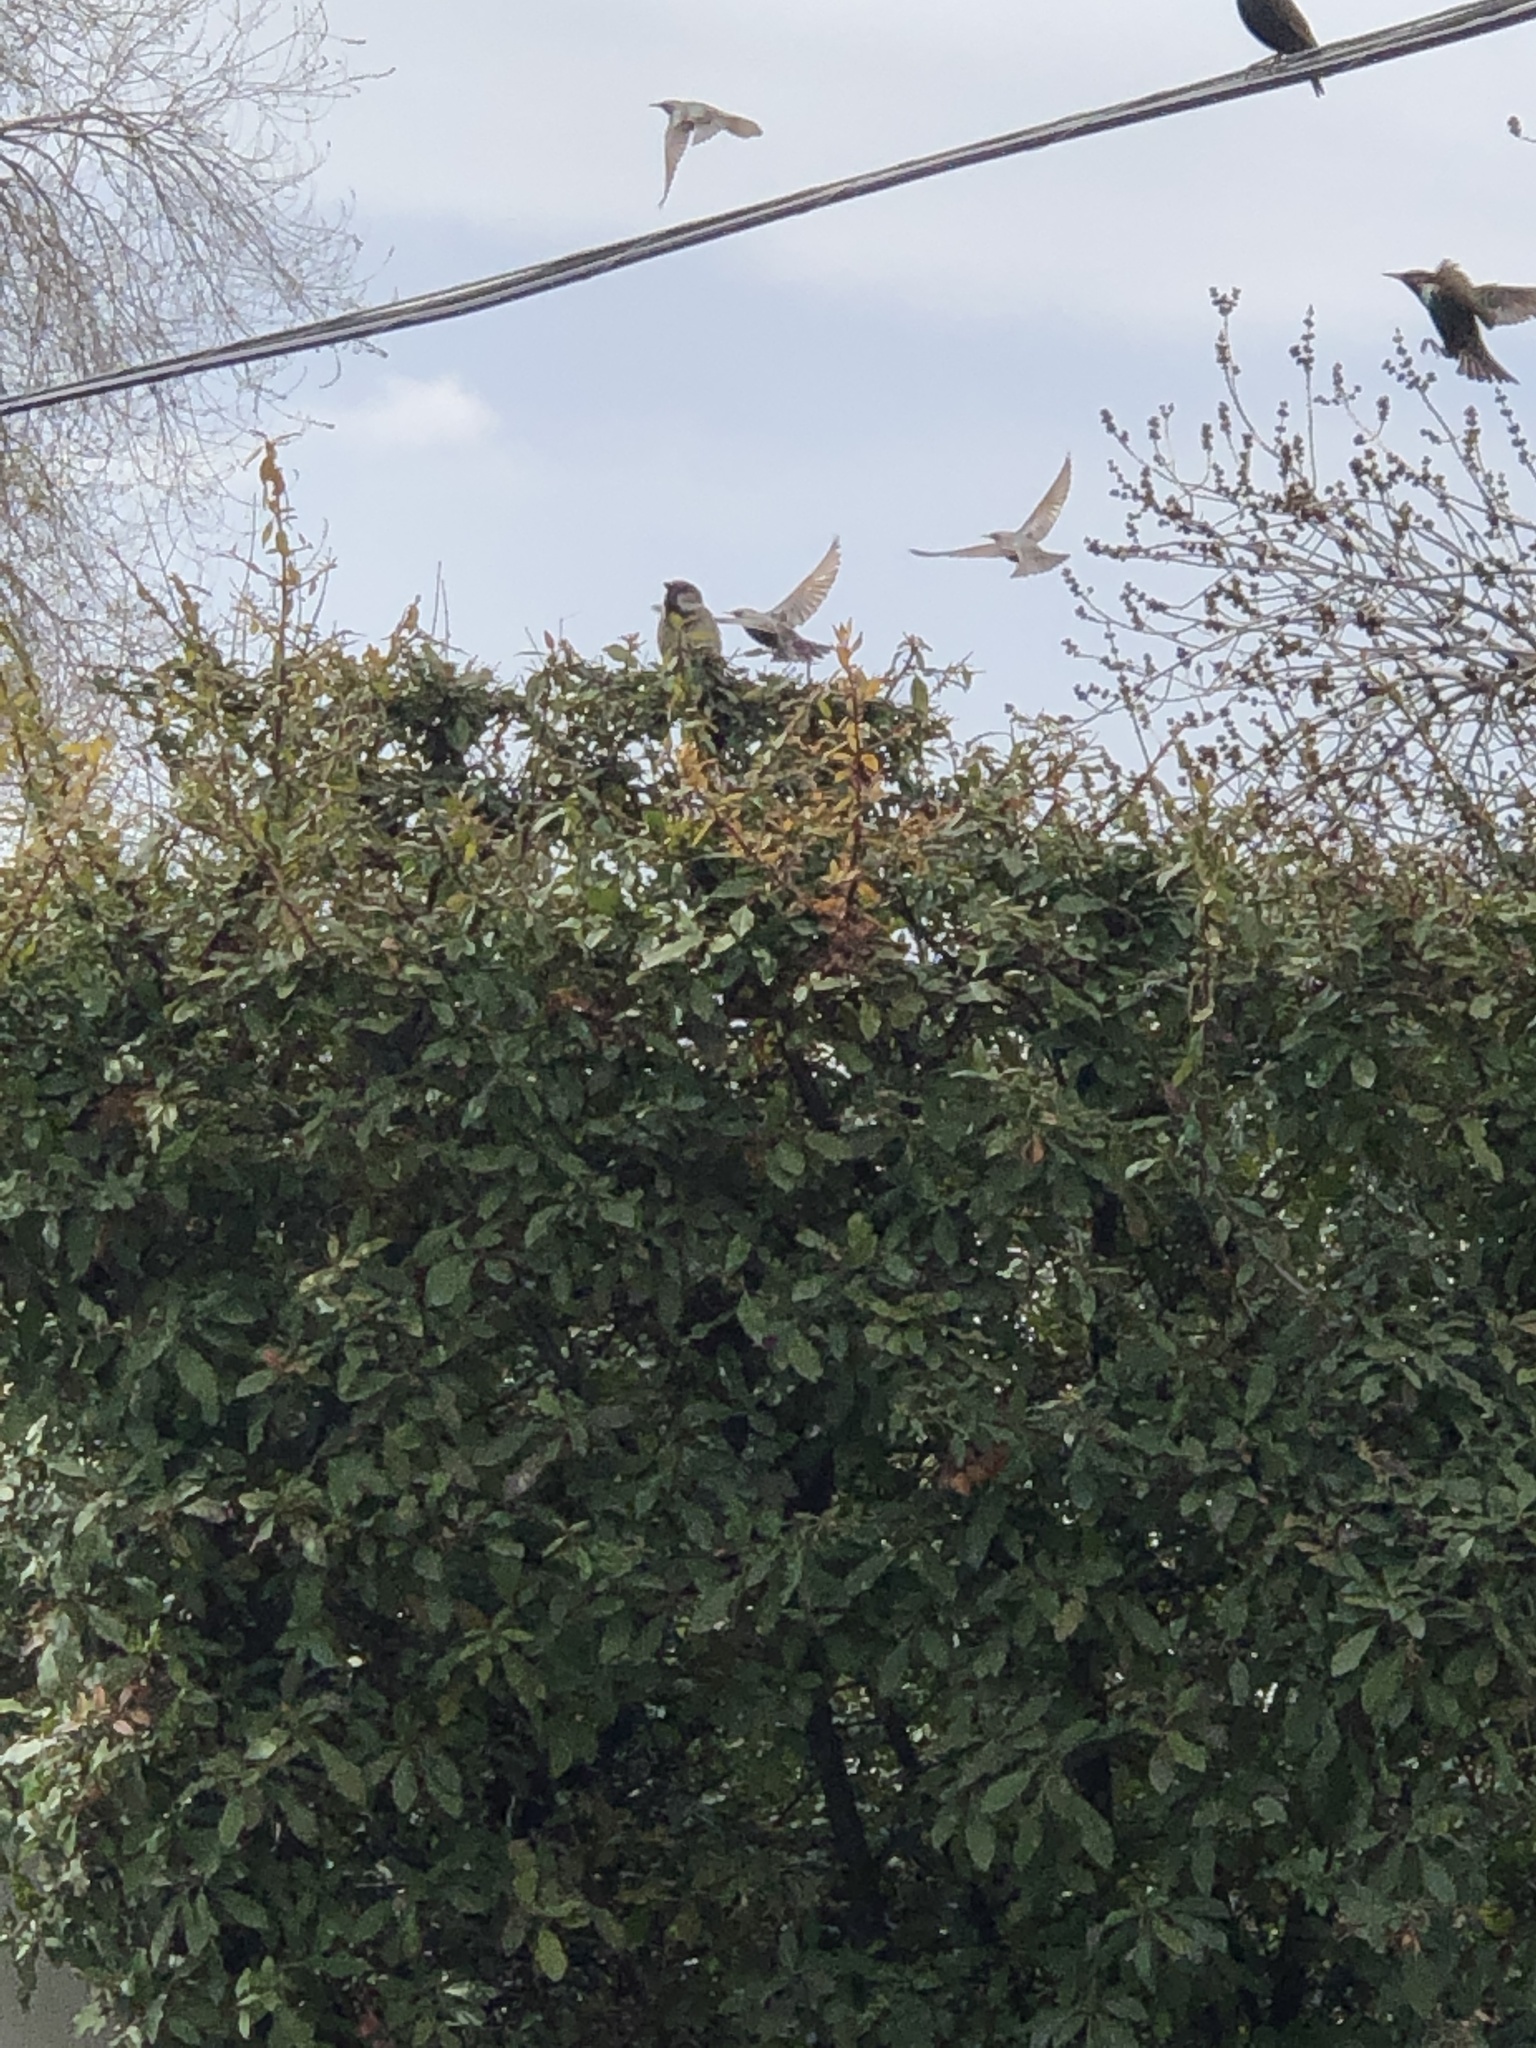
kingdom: Animalia
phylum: Chordata
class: Aves
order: Passeriformes
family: Passeridae
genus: Passer
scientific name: Passer domesticus
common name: House sparrow
